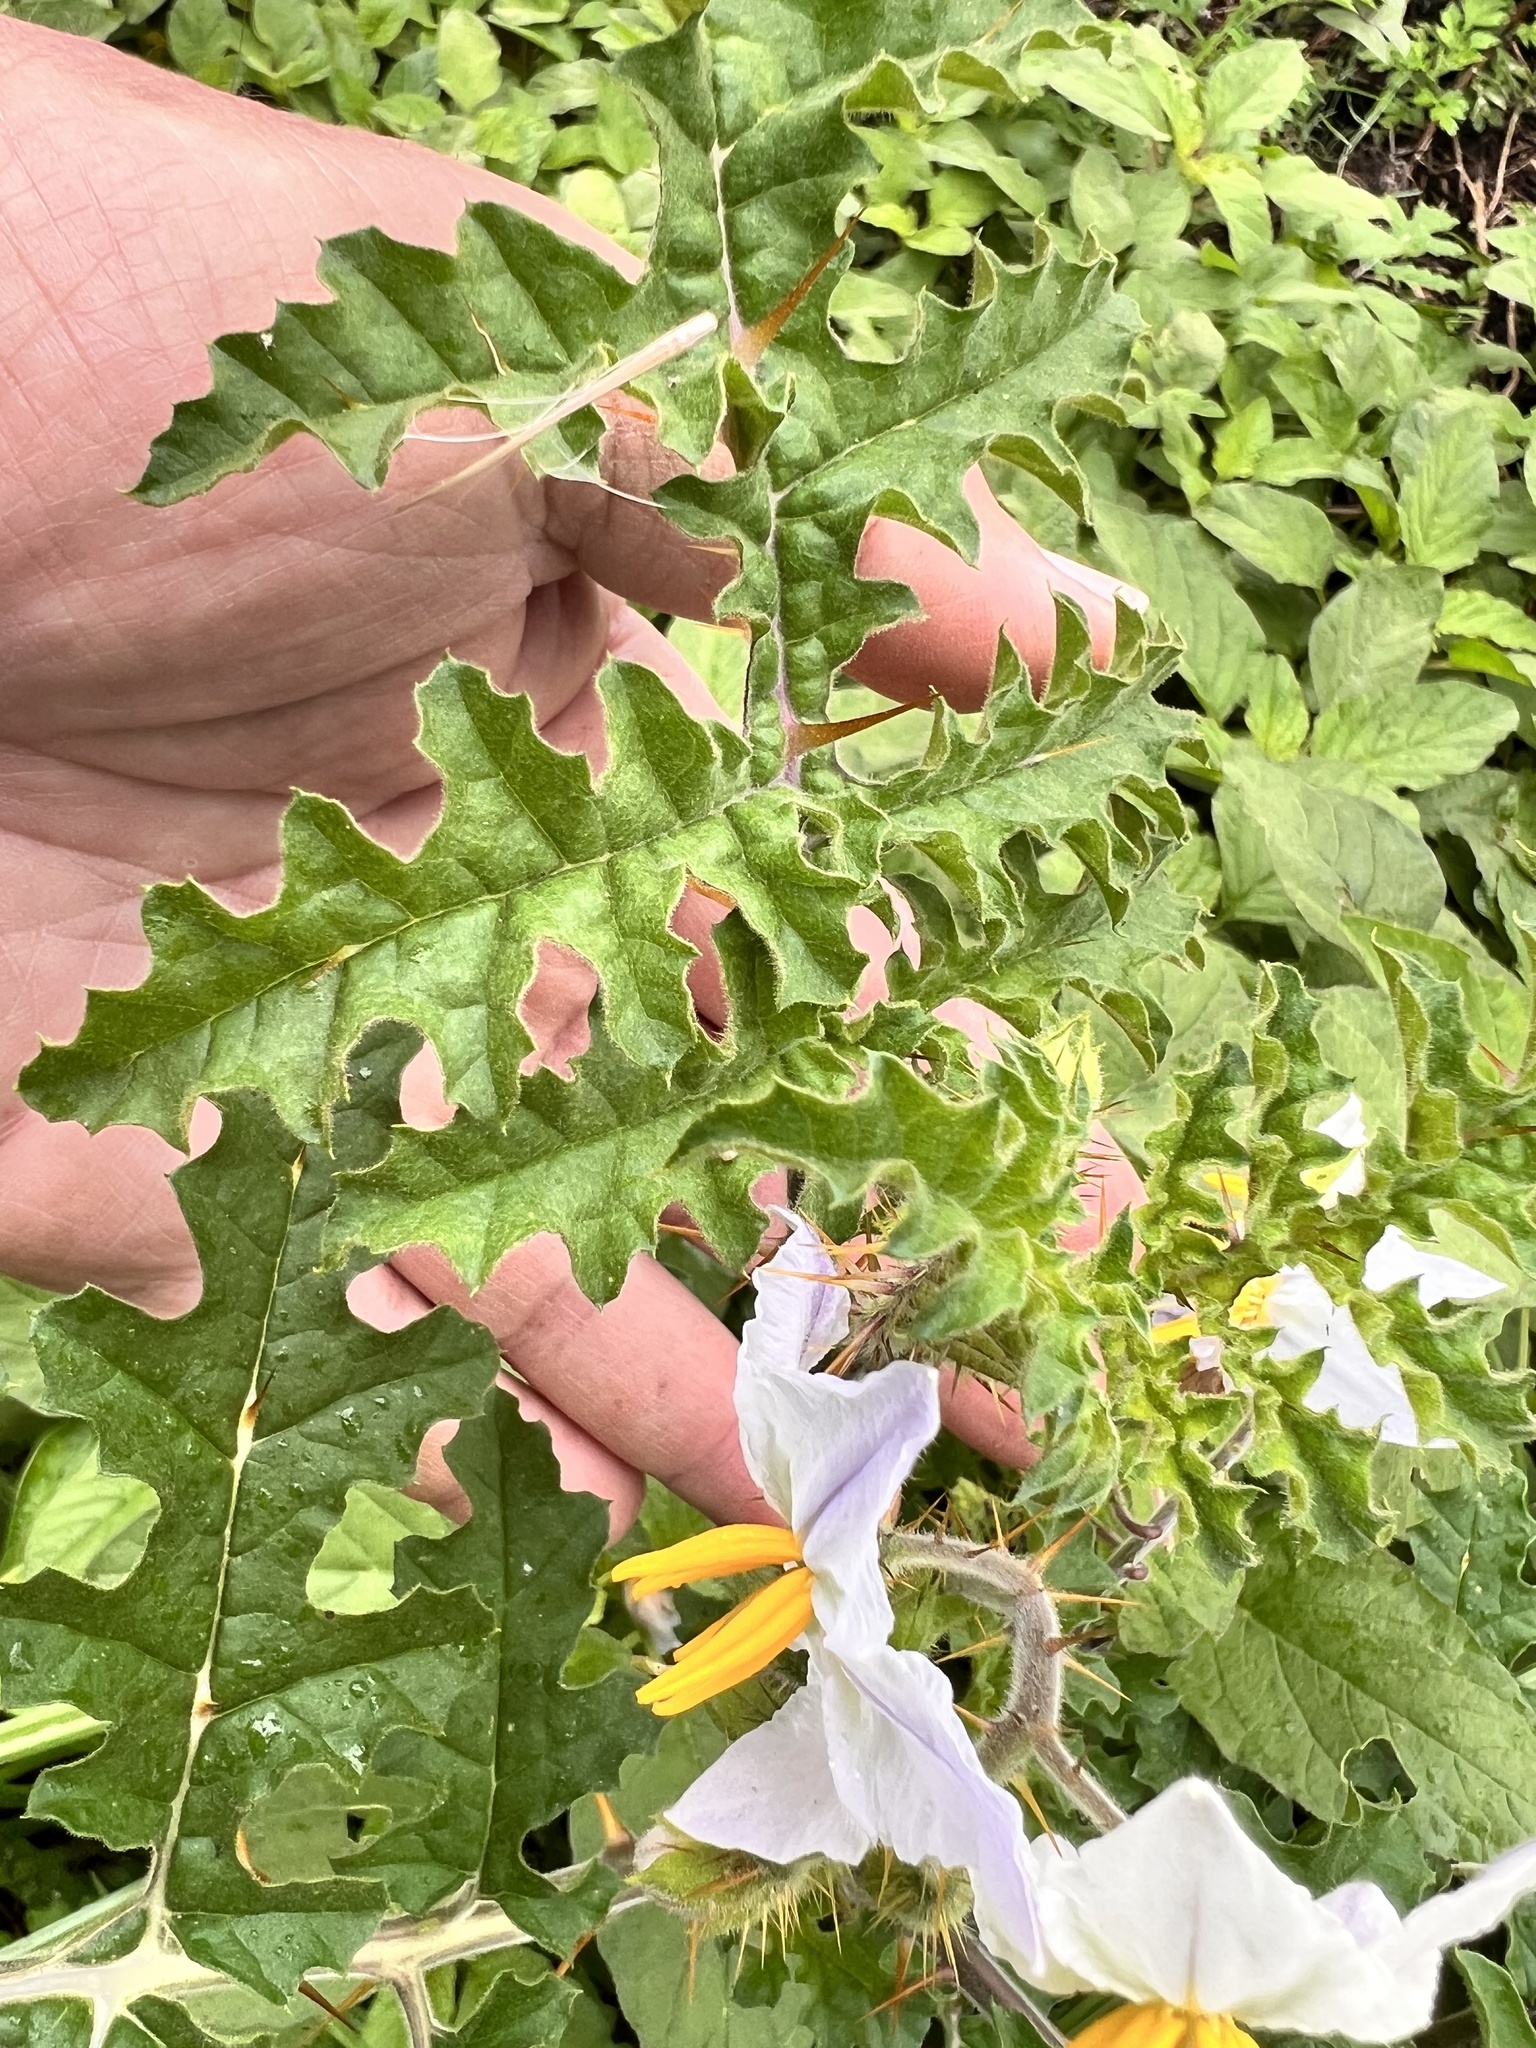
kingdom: Plantae
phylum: Tracheophyta
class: Magnoliopsida
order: Solanales
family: Solanaceae
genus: Solanum
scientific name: Solanum sisymbriifolium
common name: Red buffalo-bur
